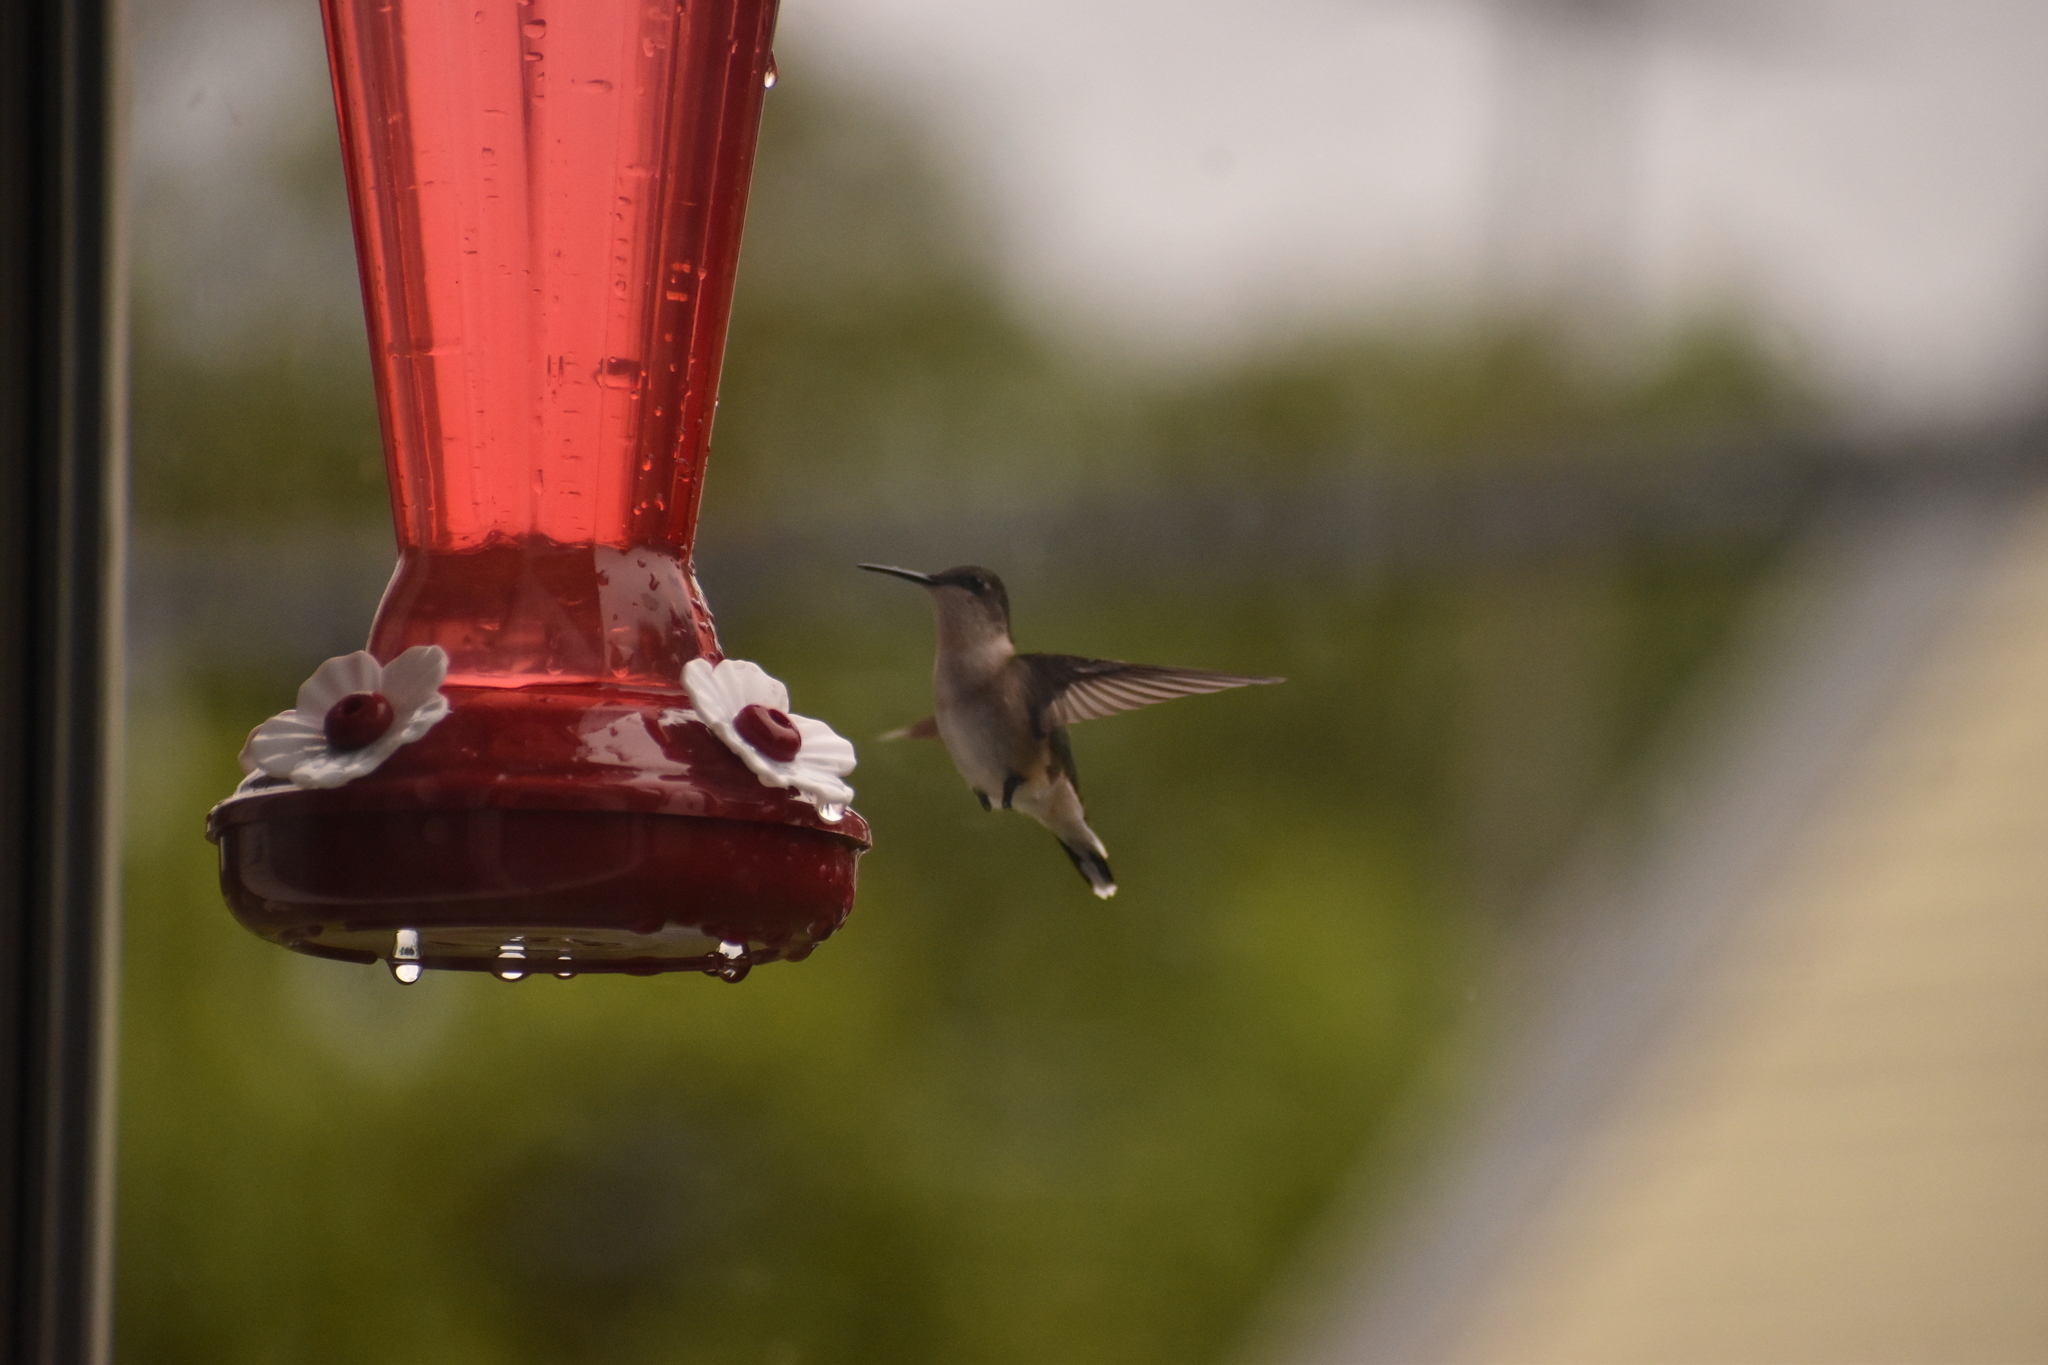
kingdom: Animalia
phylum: Chordata
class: Aves
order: Apodiformes
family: Trochilidae
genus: Archilochus
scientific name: Archilochus colubris
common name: Ruby-throated hummingbird
